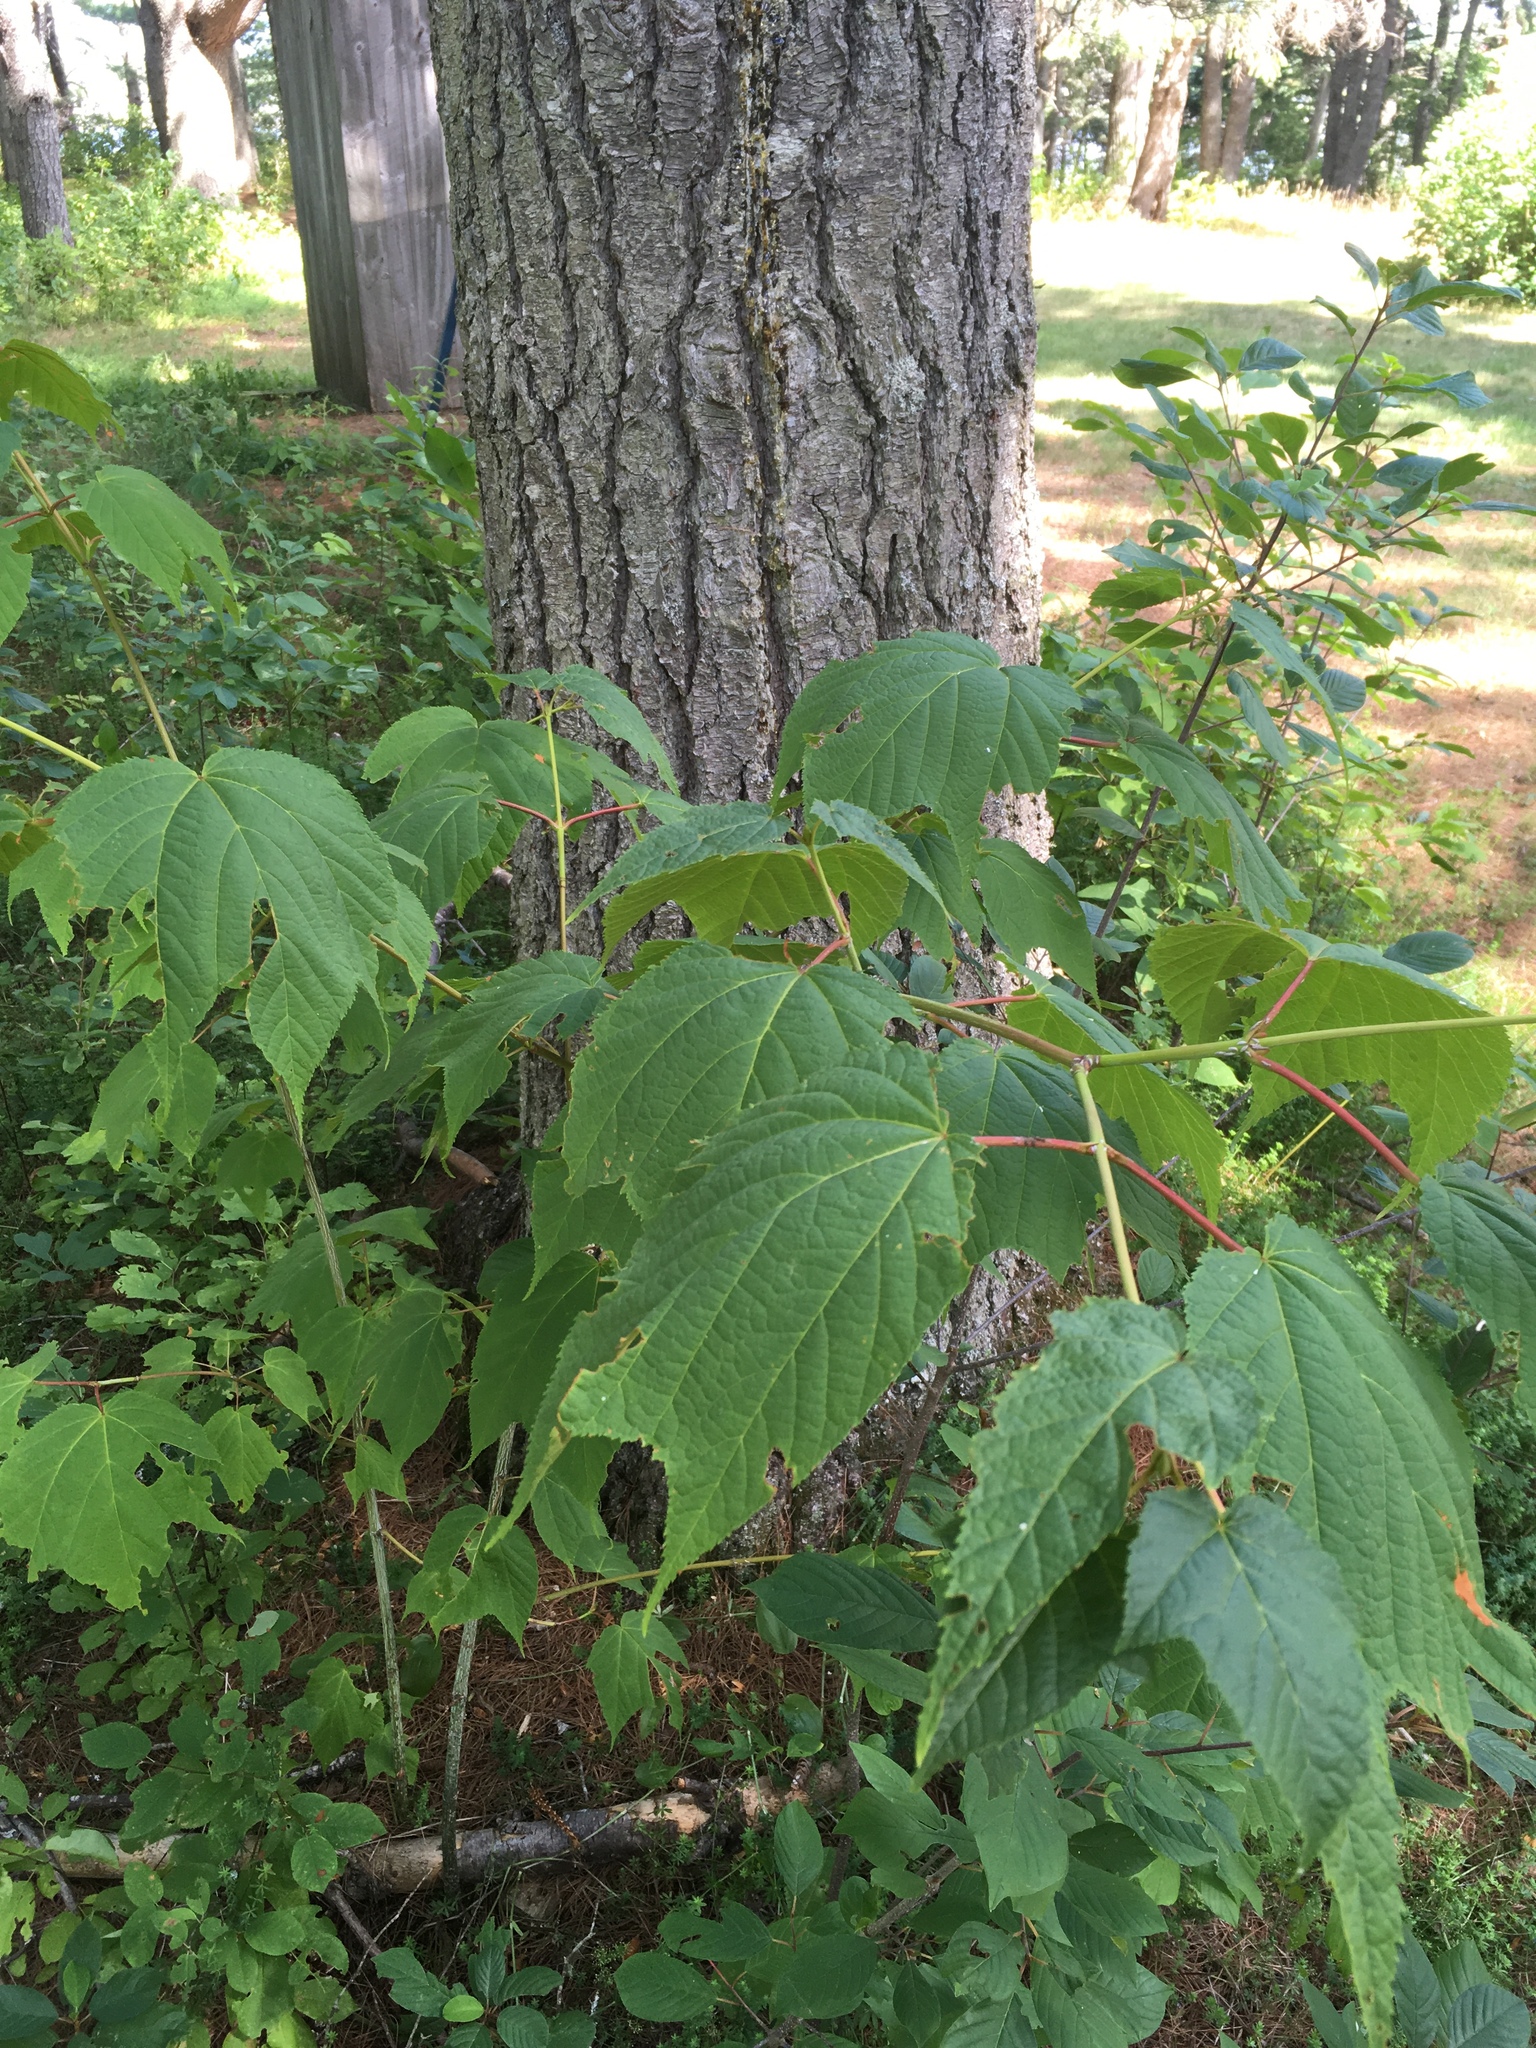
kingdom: Plantae
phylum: Tracheophyta
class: Magnoliopsida
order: Sapindales
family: Sapindaceae
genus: Acer
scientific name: Acer pensylvanicum
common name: Moosewood
